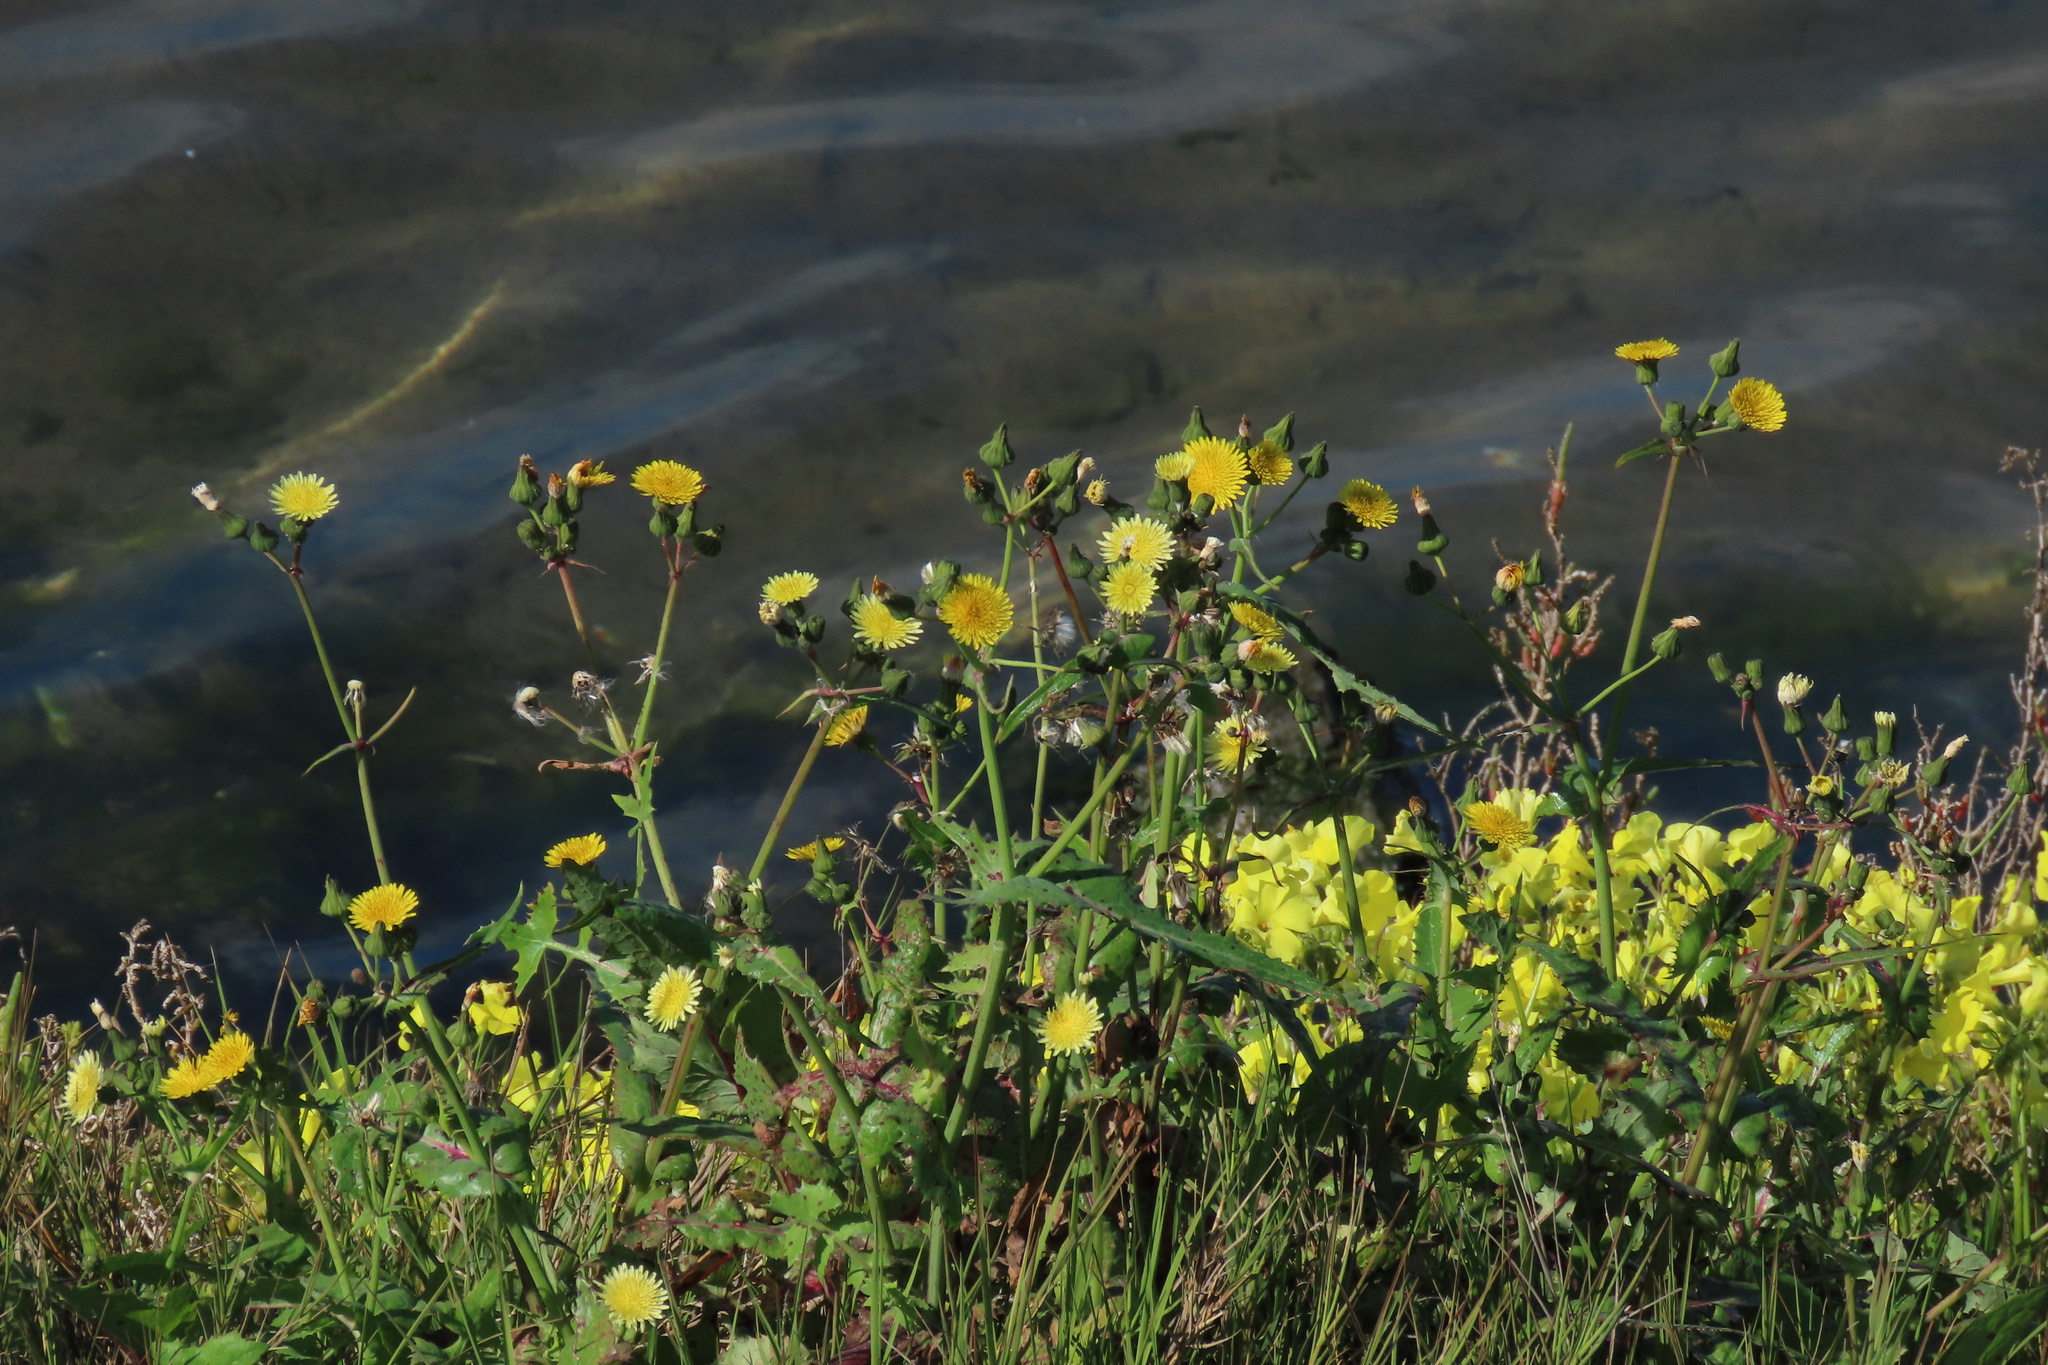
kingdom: Plantae
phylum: Tracheophyta
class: Magnoliopsida
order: Asterales
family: Asteraceae
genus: Sonchus
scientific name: Sonchus oleraceus
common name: Common sowthistle
